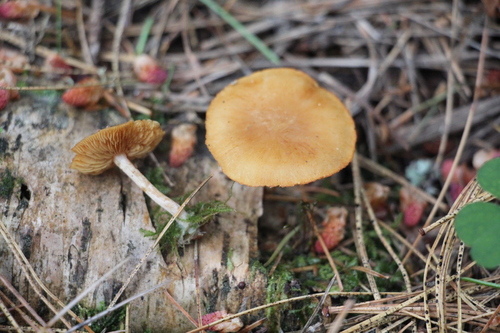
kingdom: Fungi
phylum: Basidiomycota
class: Agaricomycetes
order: Agaricales
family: Hymenogastraceae
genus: Gymnopilus
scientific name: Gymnopilus penetrans
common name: Common rustgill
